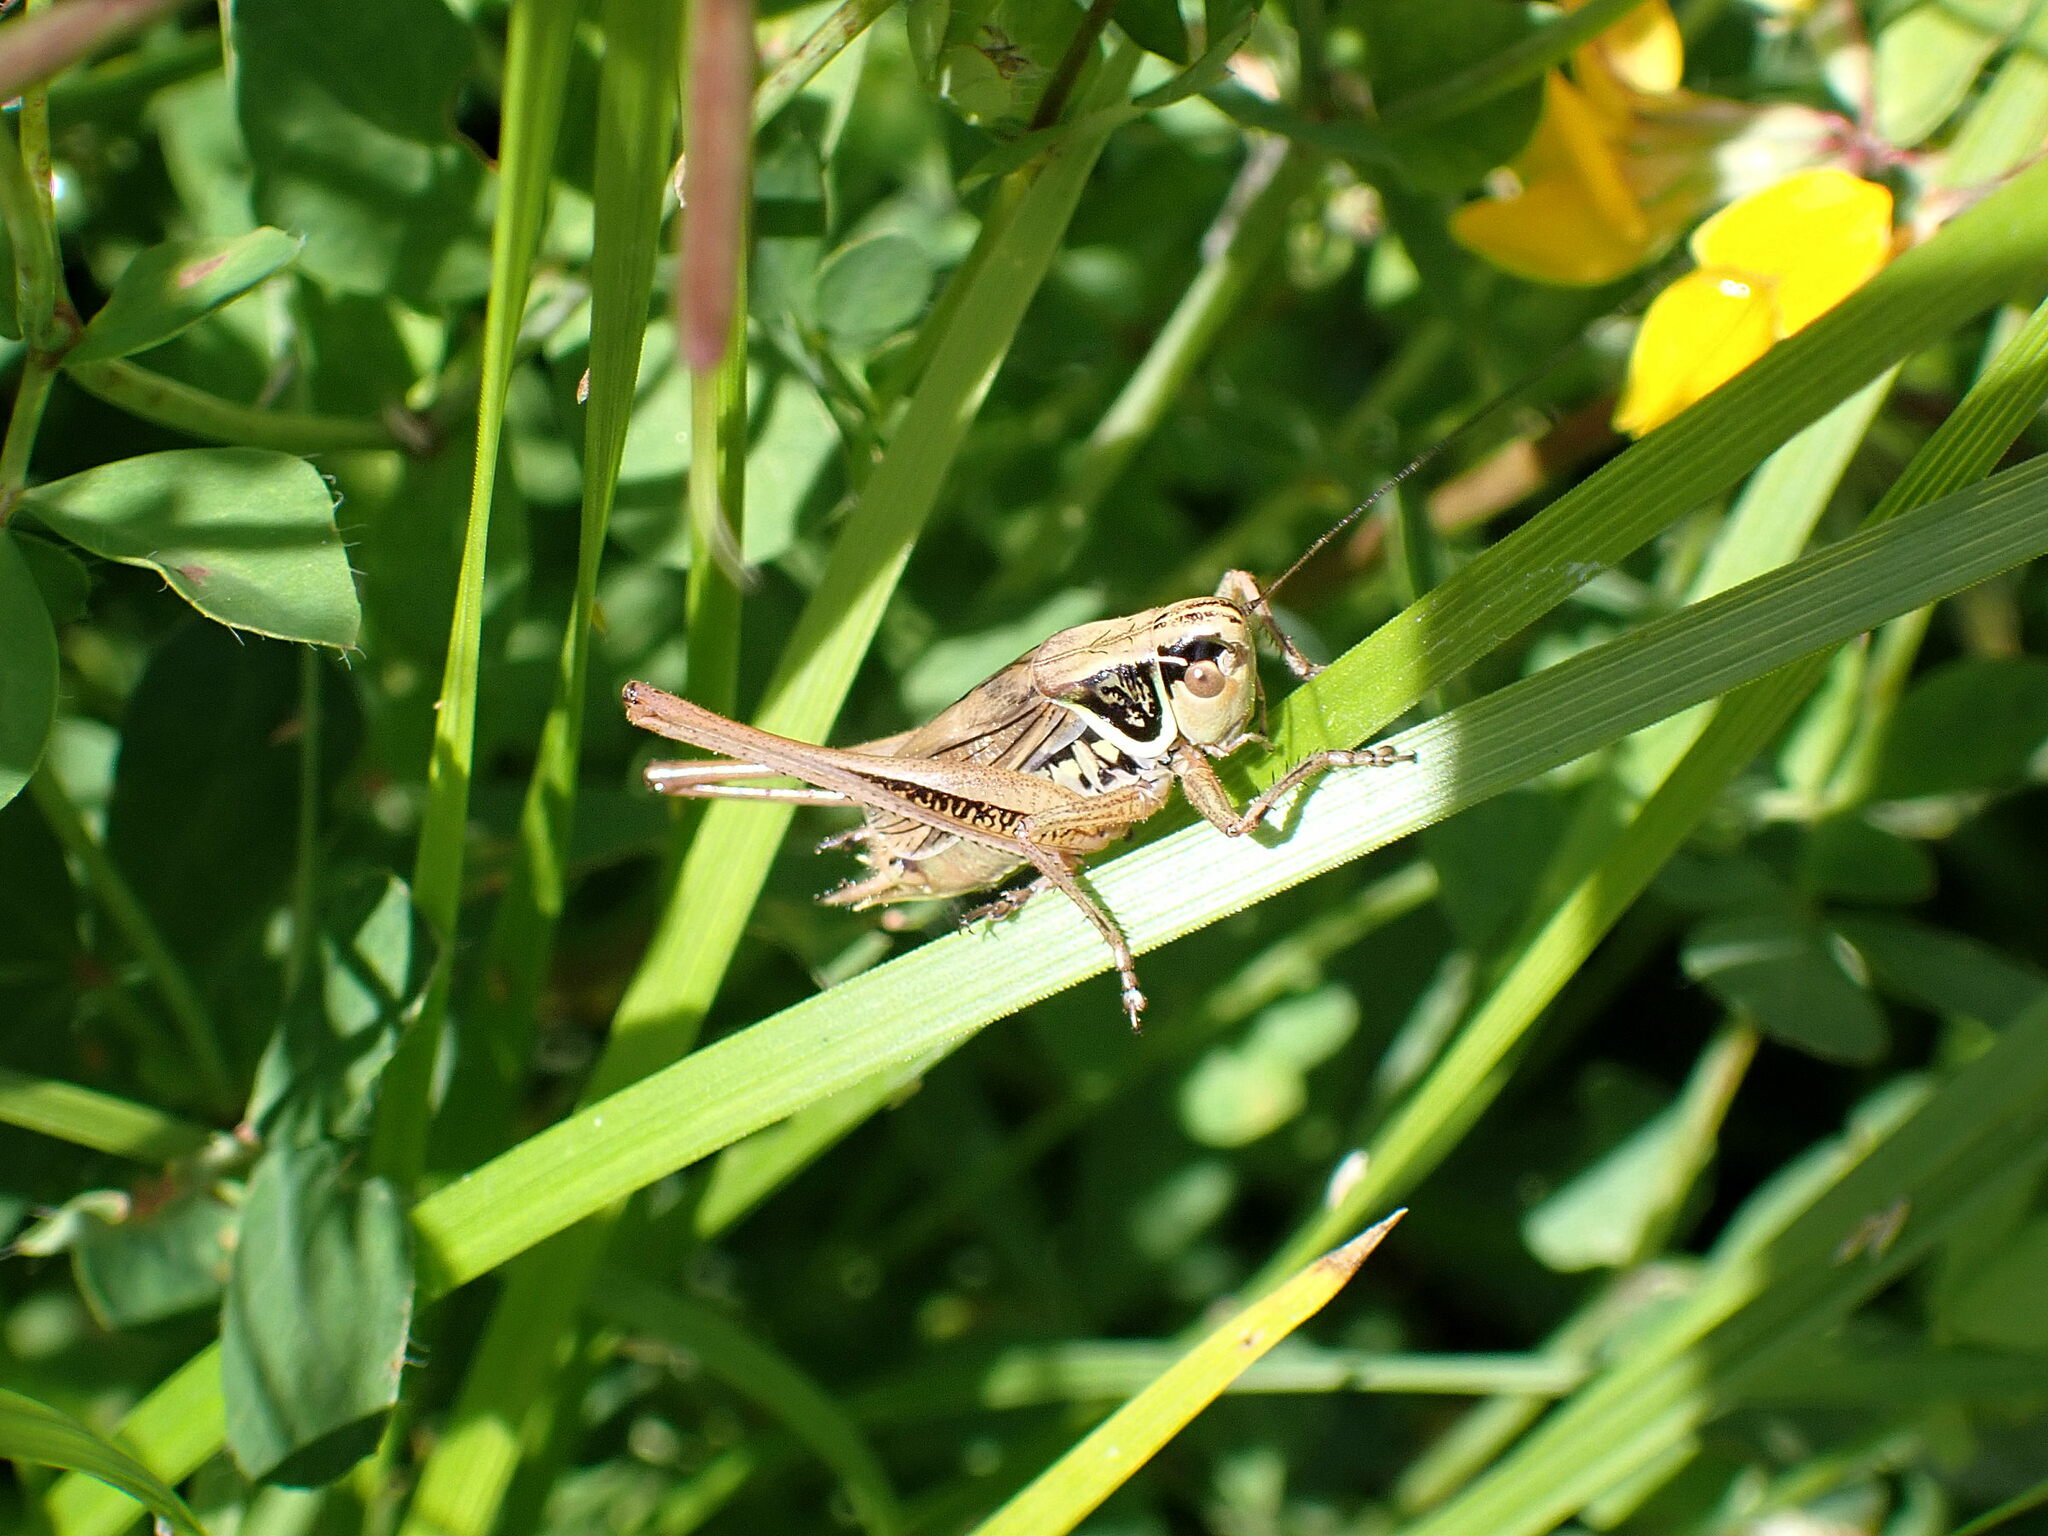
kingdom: Animalia
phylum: Arthropoda
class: Insecta
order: Orthoptera
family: Tettigoniidae
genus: Roeseliana
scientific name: Roeseliana roeselii
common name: Roesel's bush cricket
